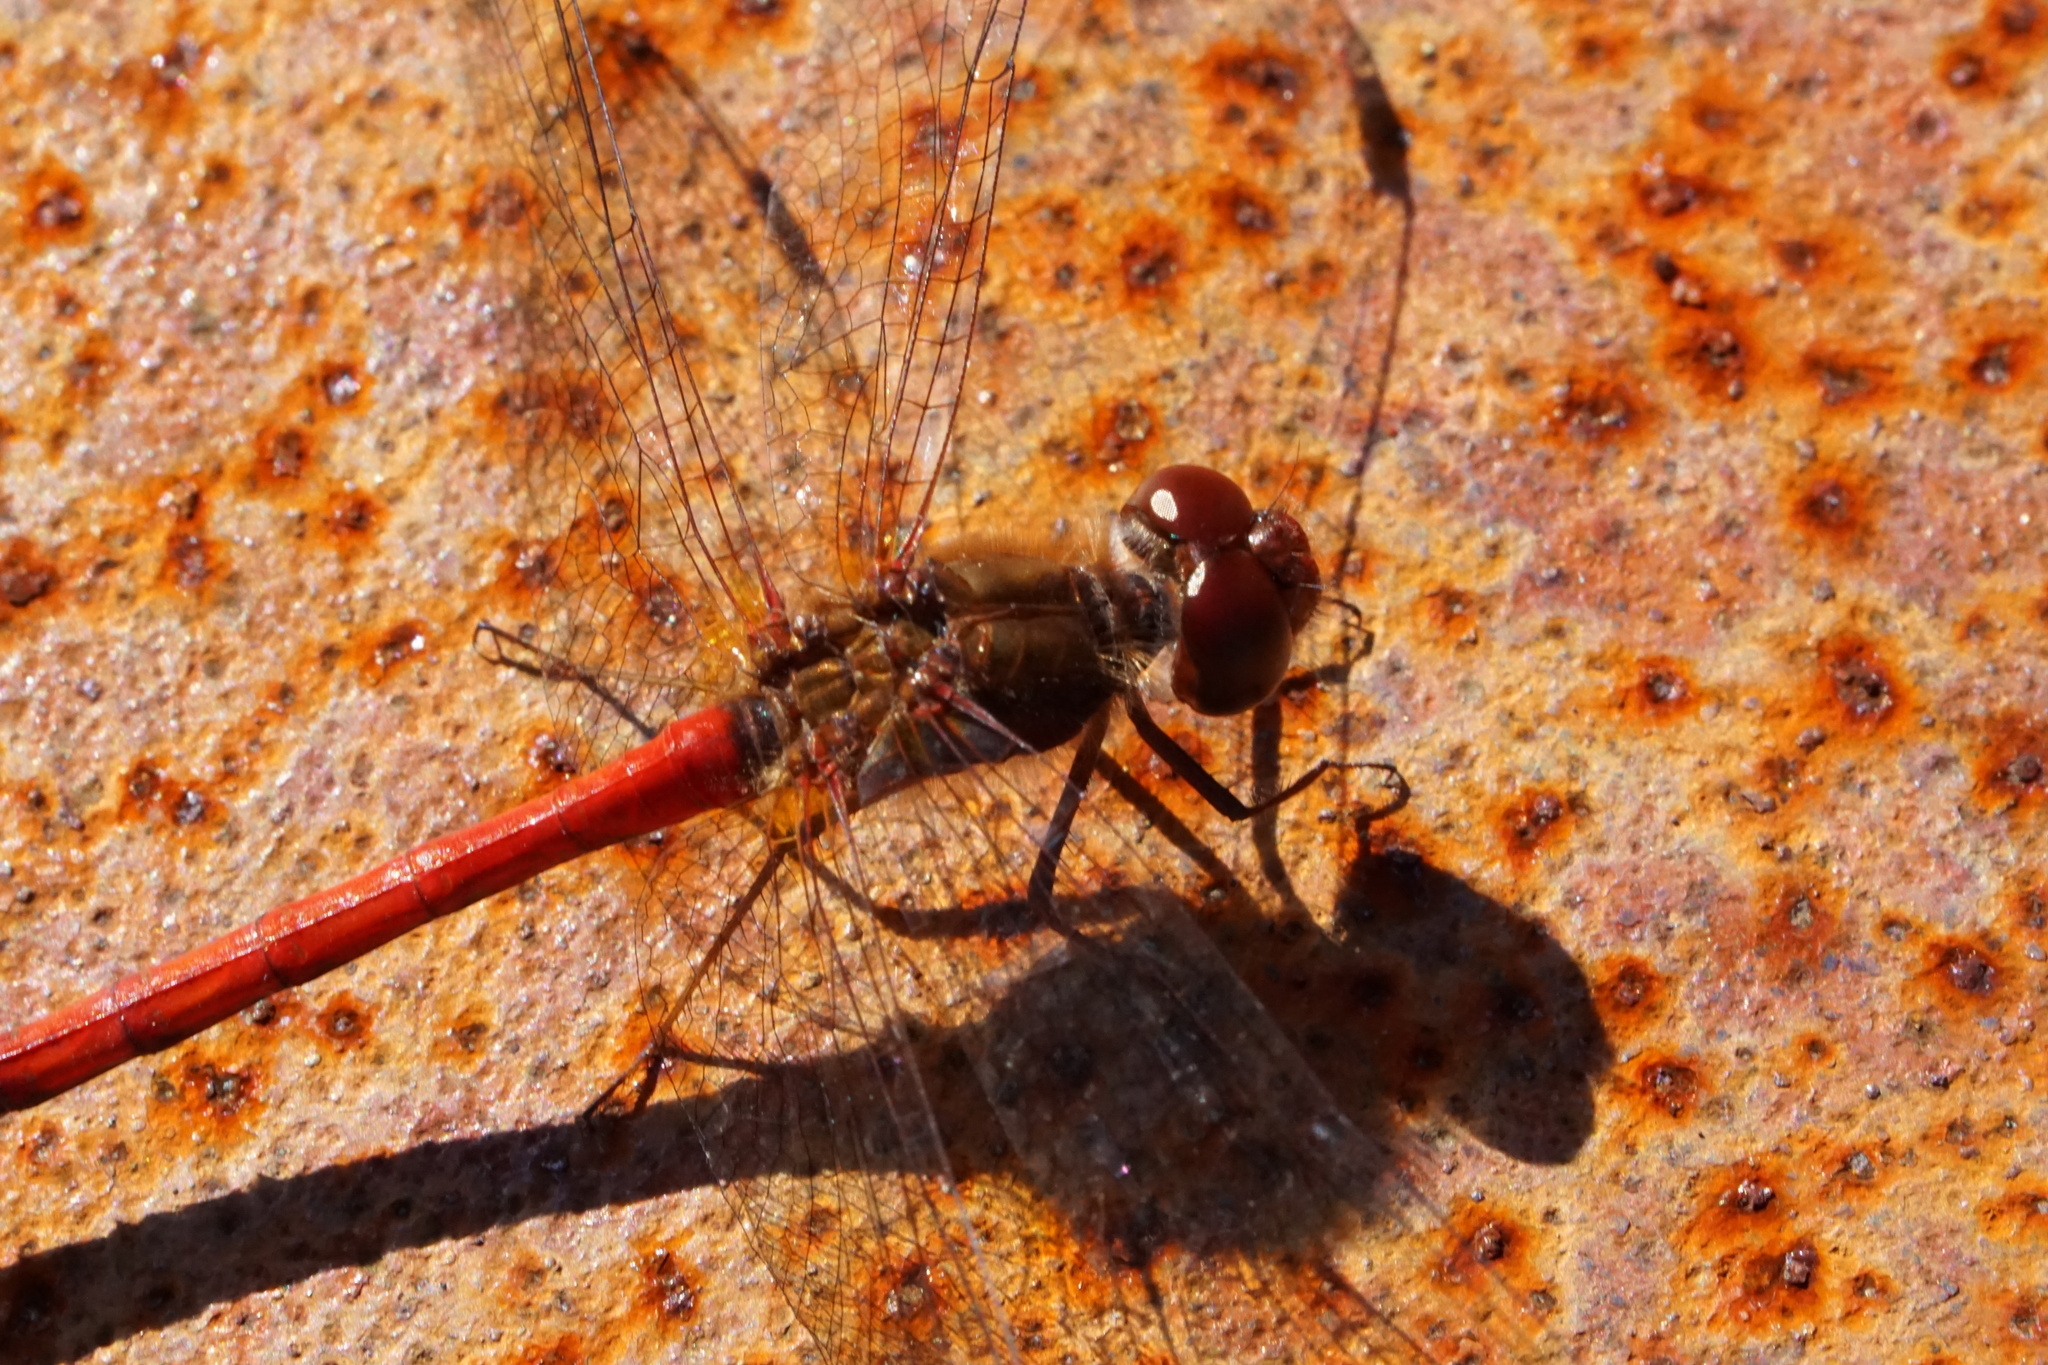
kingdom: Animalia
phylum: Arthropoda
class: Insecta
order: Odonata
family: Libellulidae
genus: Sympetrum
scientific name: Sympetrum vicinum
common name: Autumn meadowhawk
